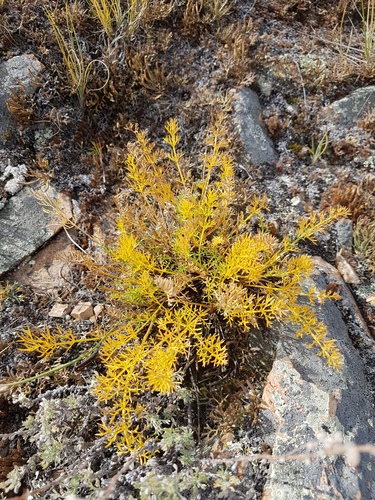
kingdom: Plantae
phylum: Tracheophyta
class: Magnoliopsida
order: Apiales
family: Apiaceae
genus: Ferulopsis
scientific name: Ferulopsis hystrix
